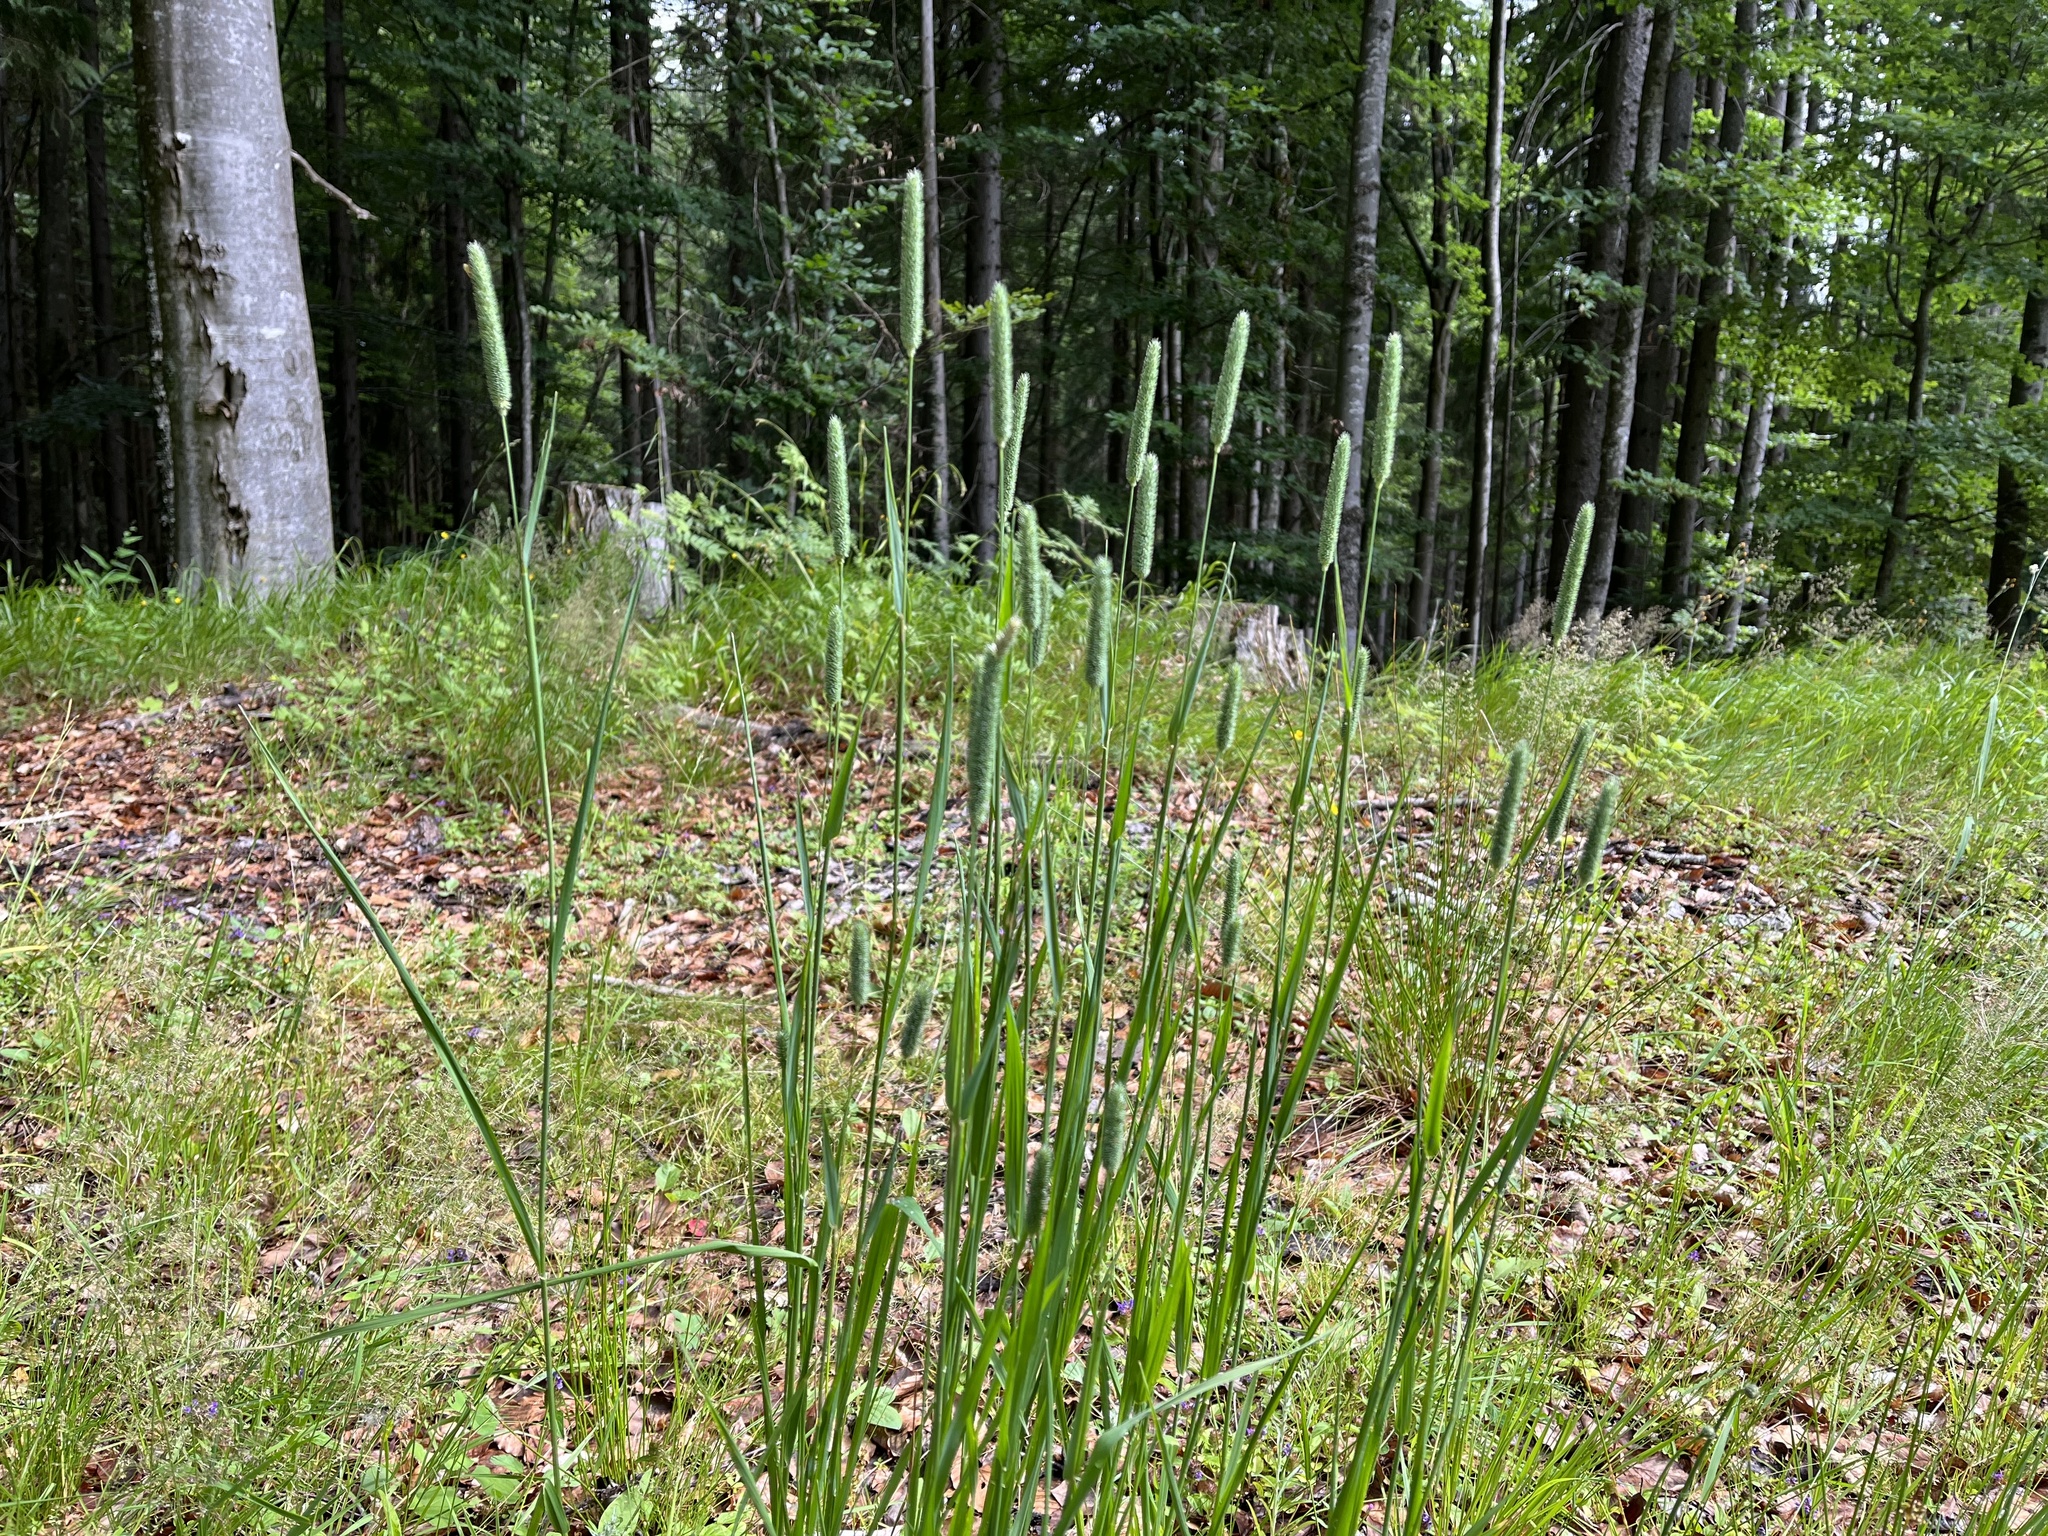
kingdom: Plantae
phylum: Tracheophyta
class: Liliopsida
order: Poales
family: Poaceae
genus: Phleum
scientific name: Phleum pratense
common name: Timothy grass
